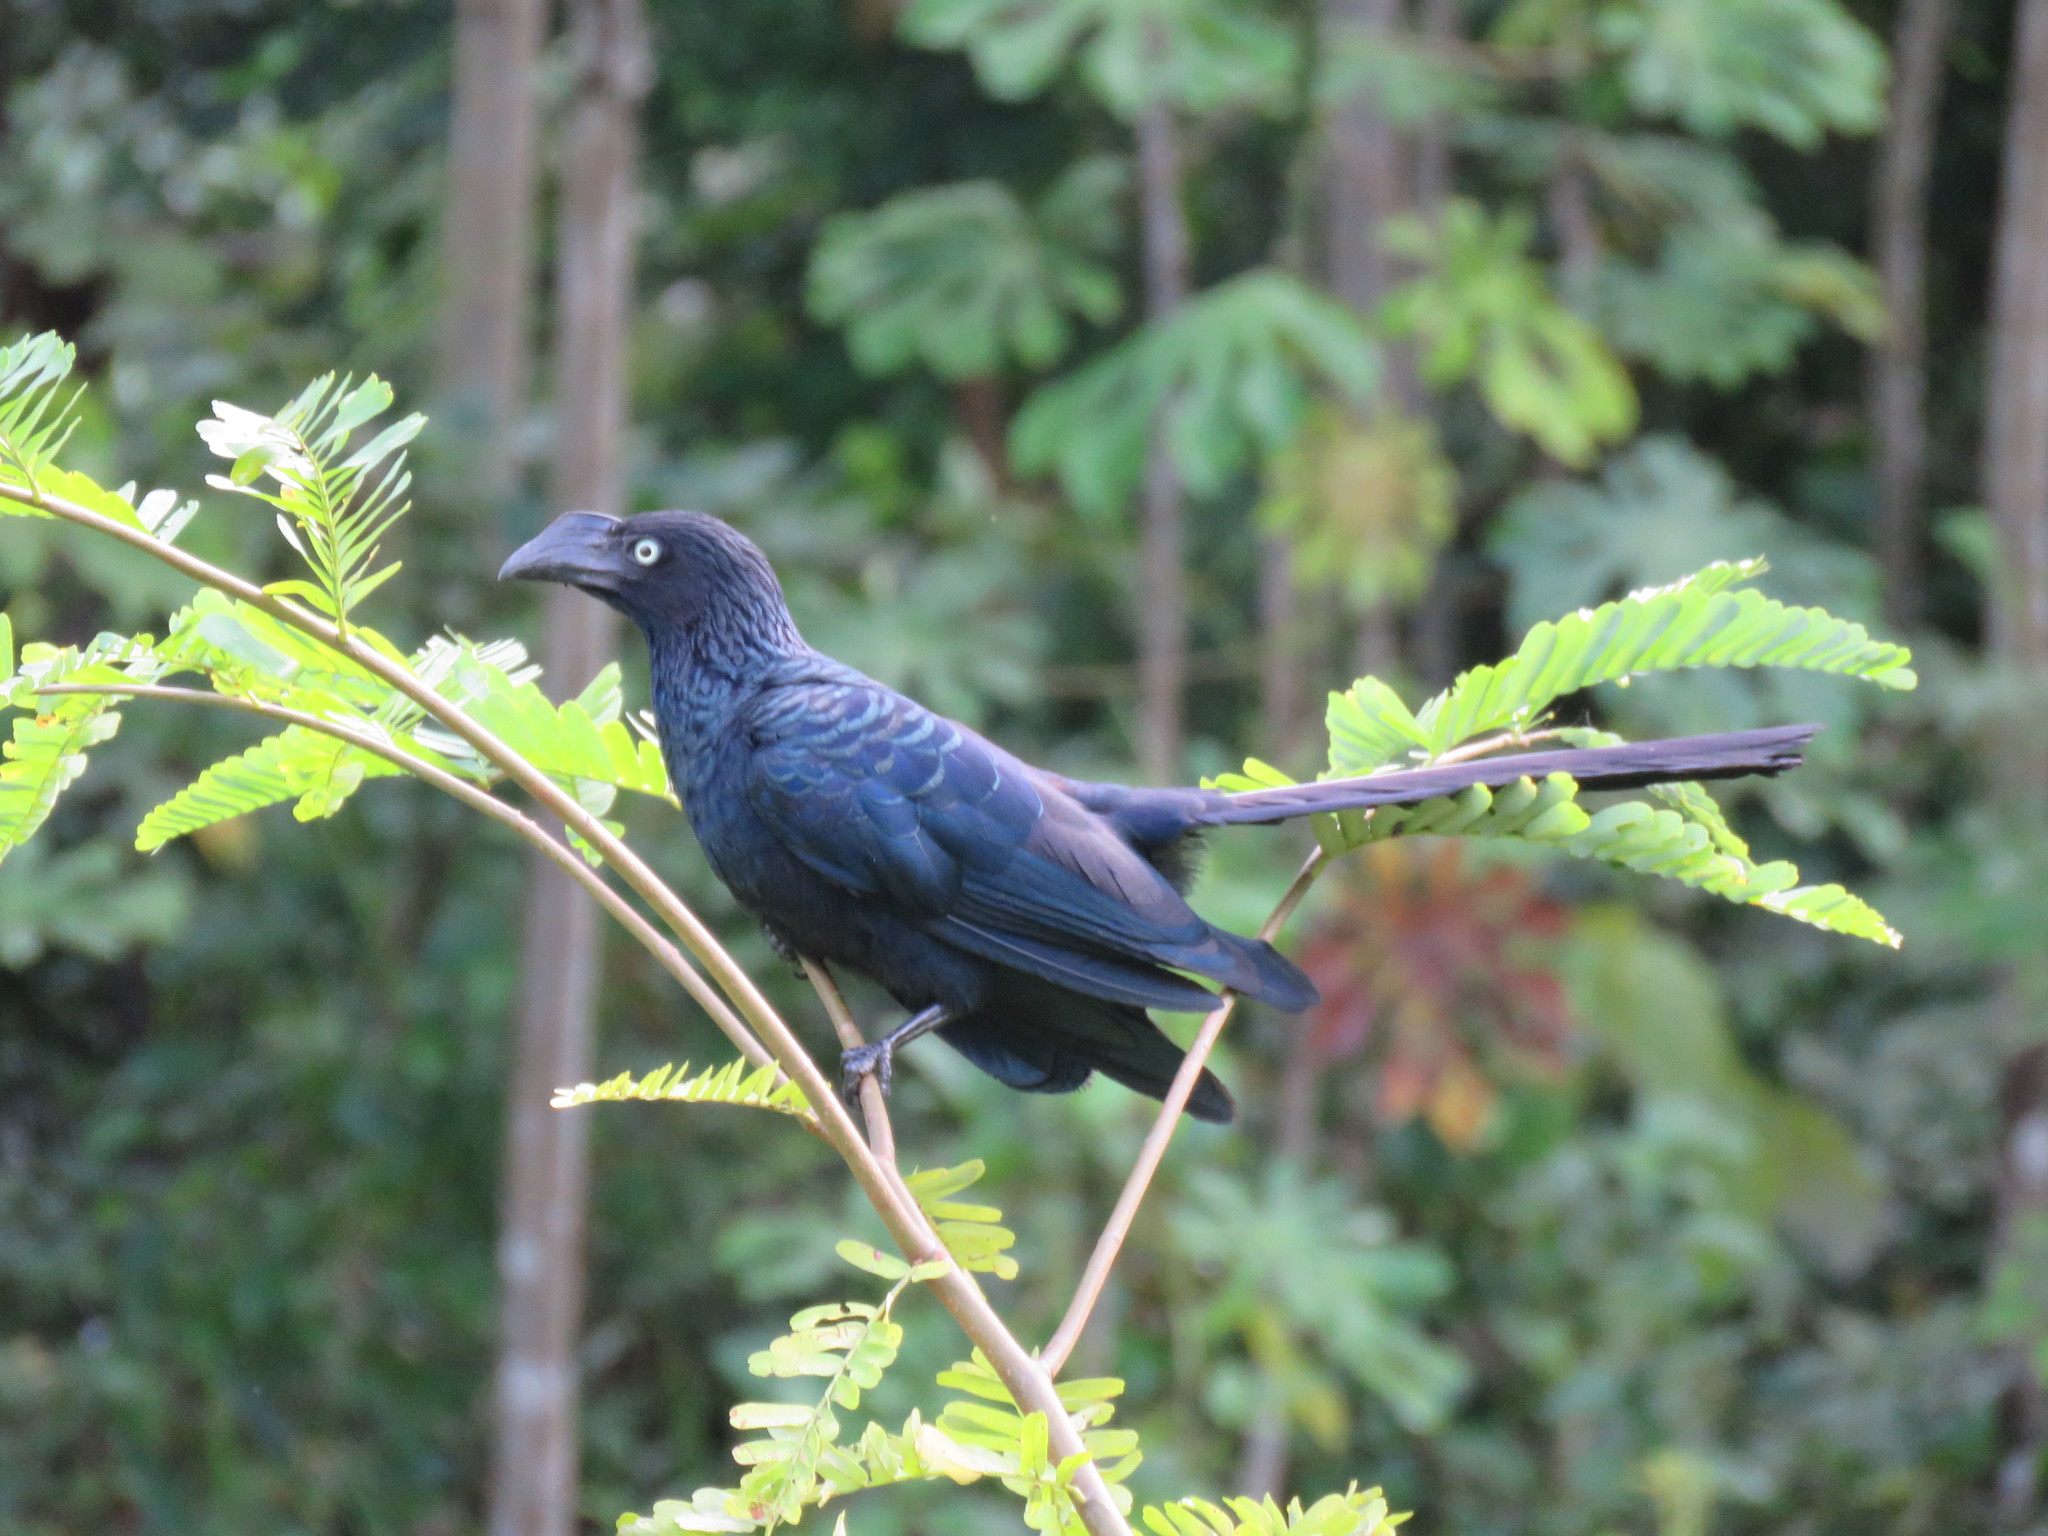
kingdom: Animalia
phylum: Chordata
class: Aves
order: Cuculiformes
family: Cuculidae
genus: Crotophaga
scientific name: Crotophaga major
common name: Greater ani
